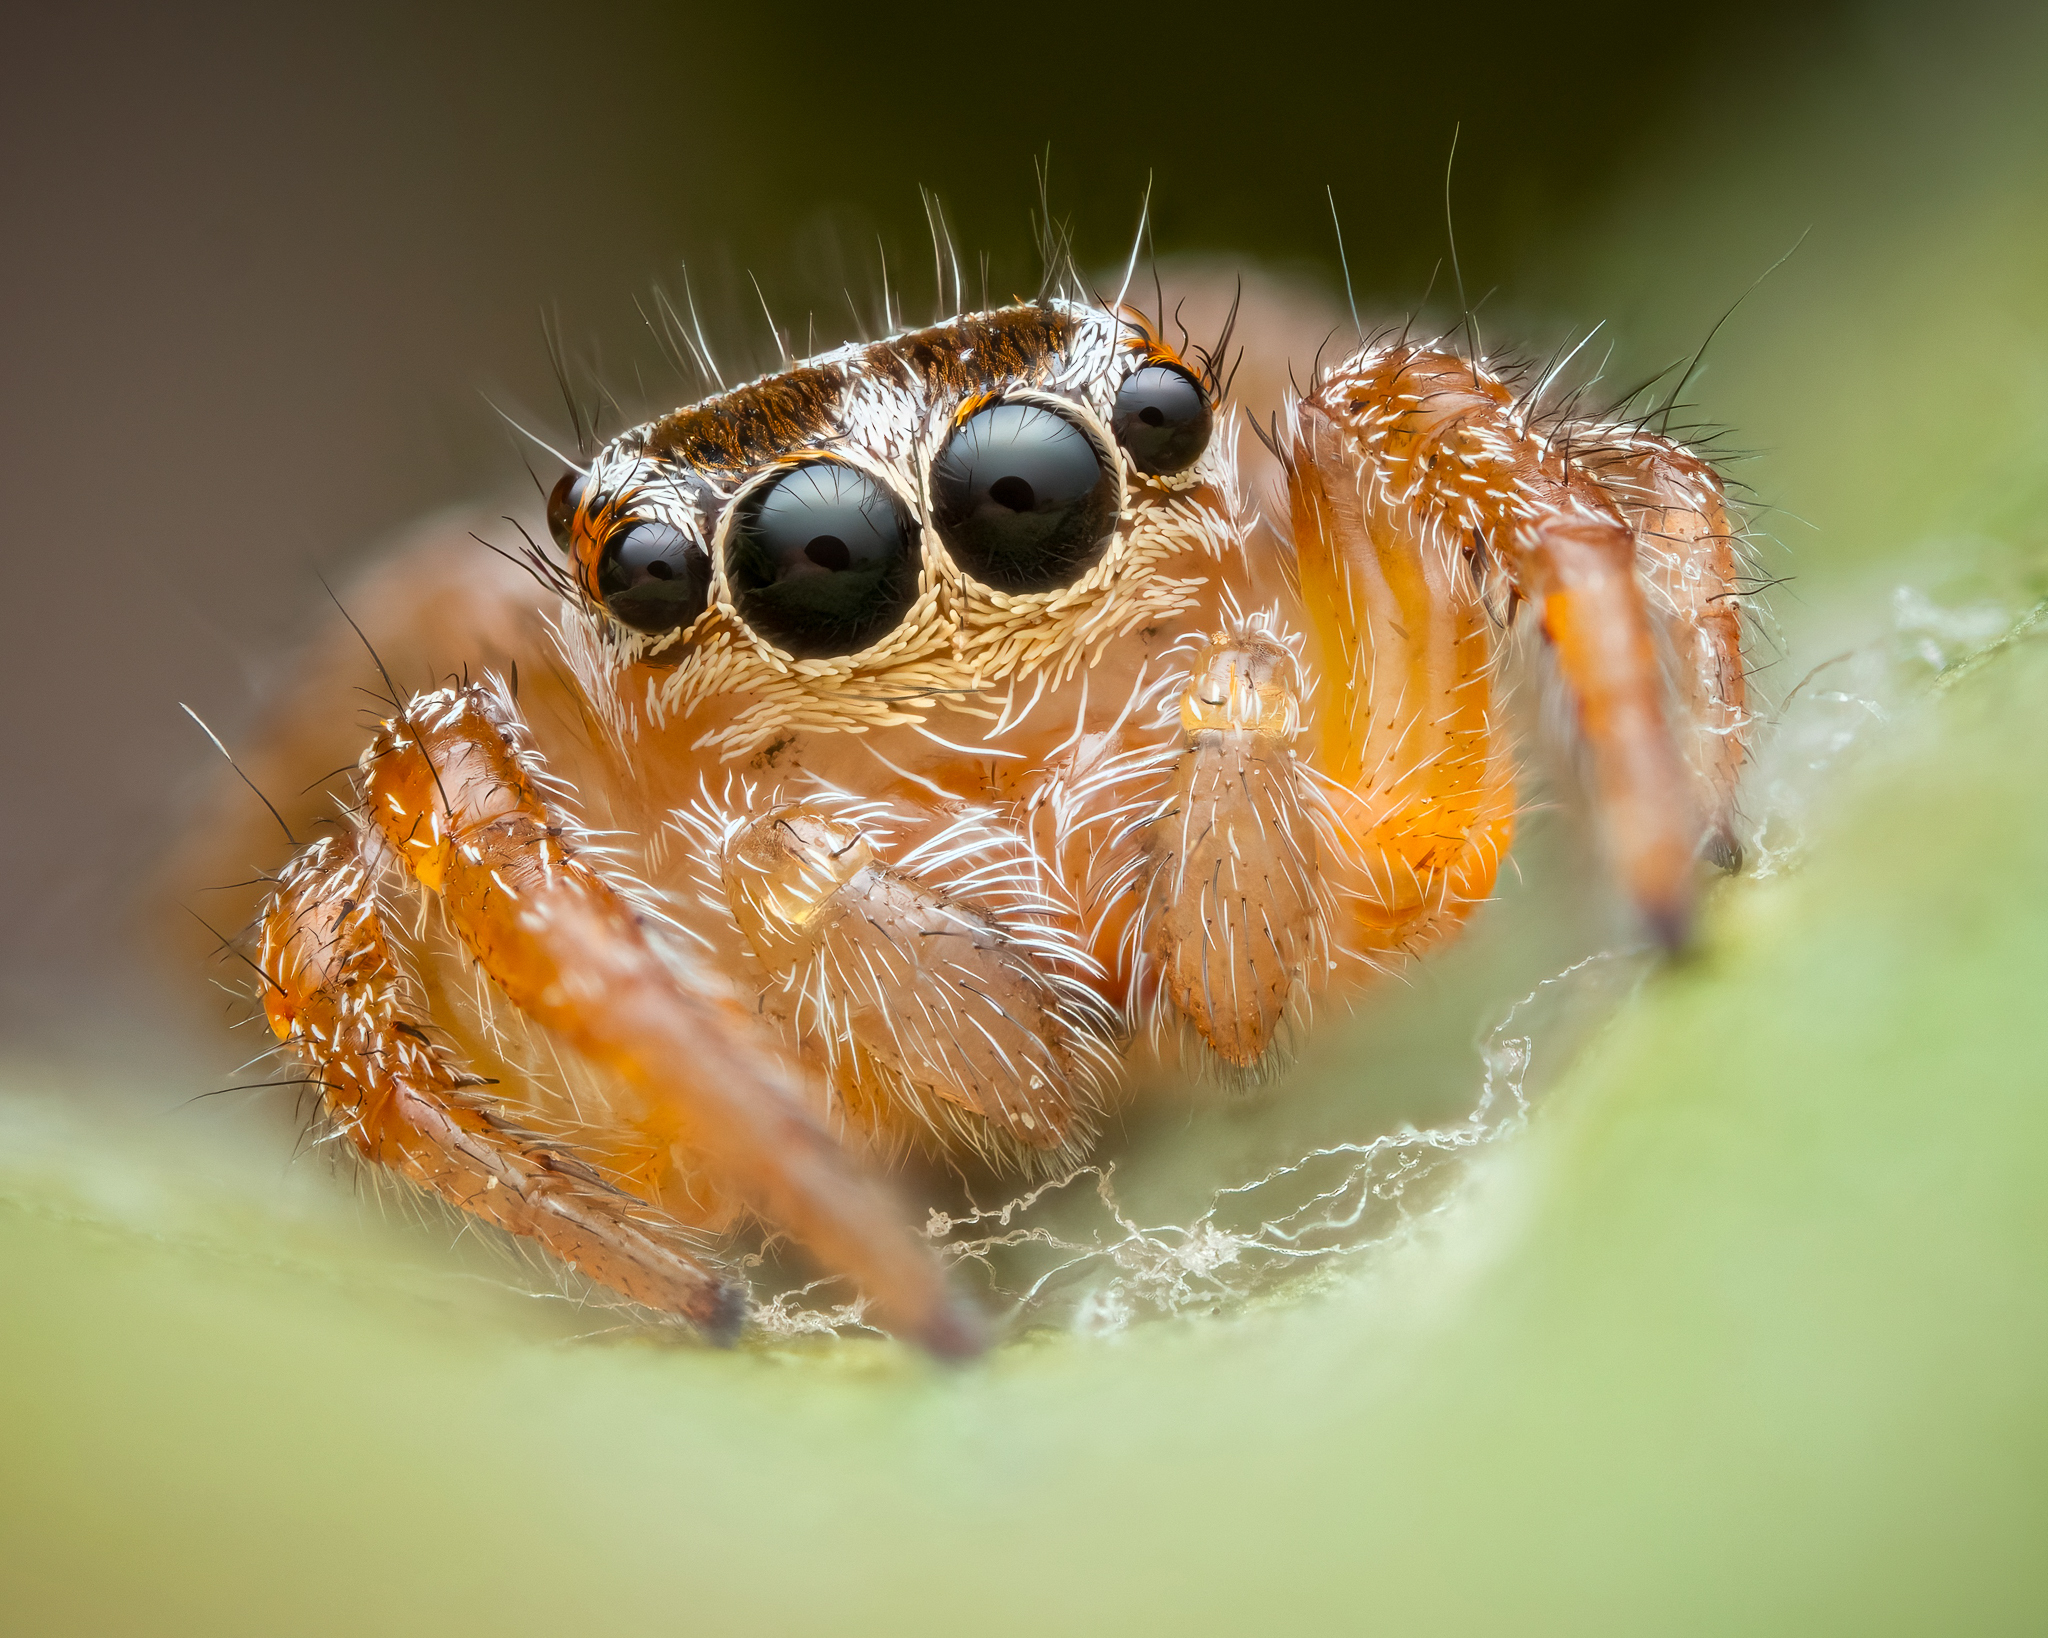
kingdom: Animalia
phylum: Arthropoda
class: Arachnida
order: Araneae
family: Salticidae
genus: Evarcha
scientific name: Evarcha jucunda
